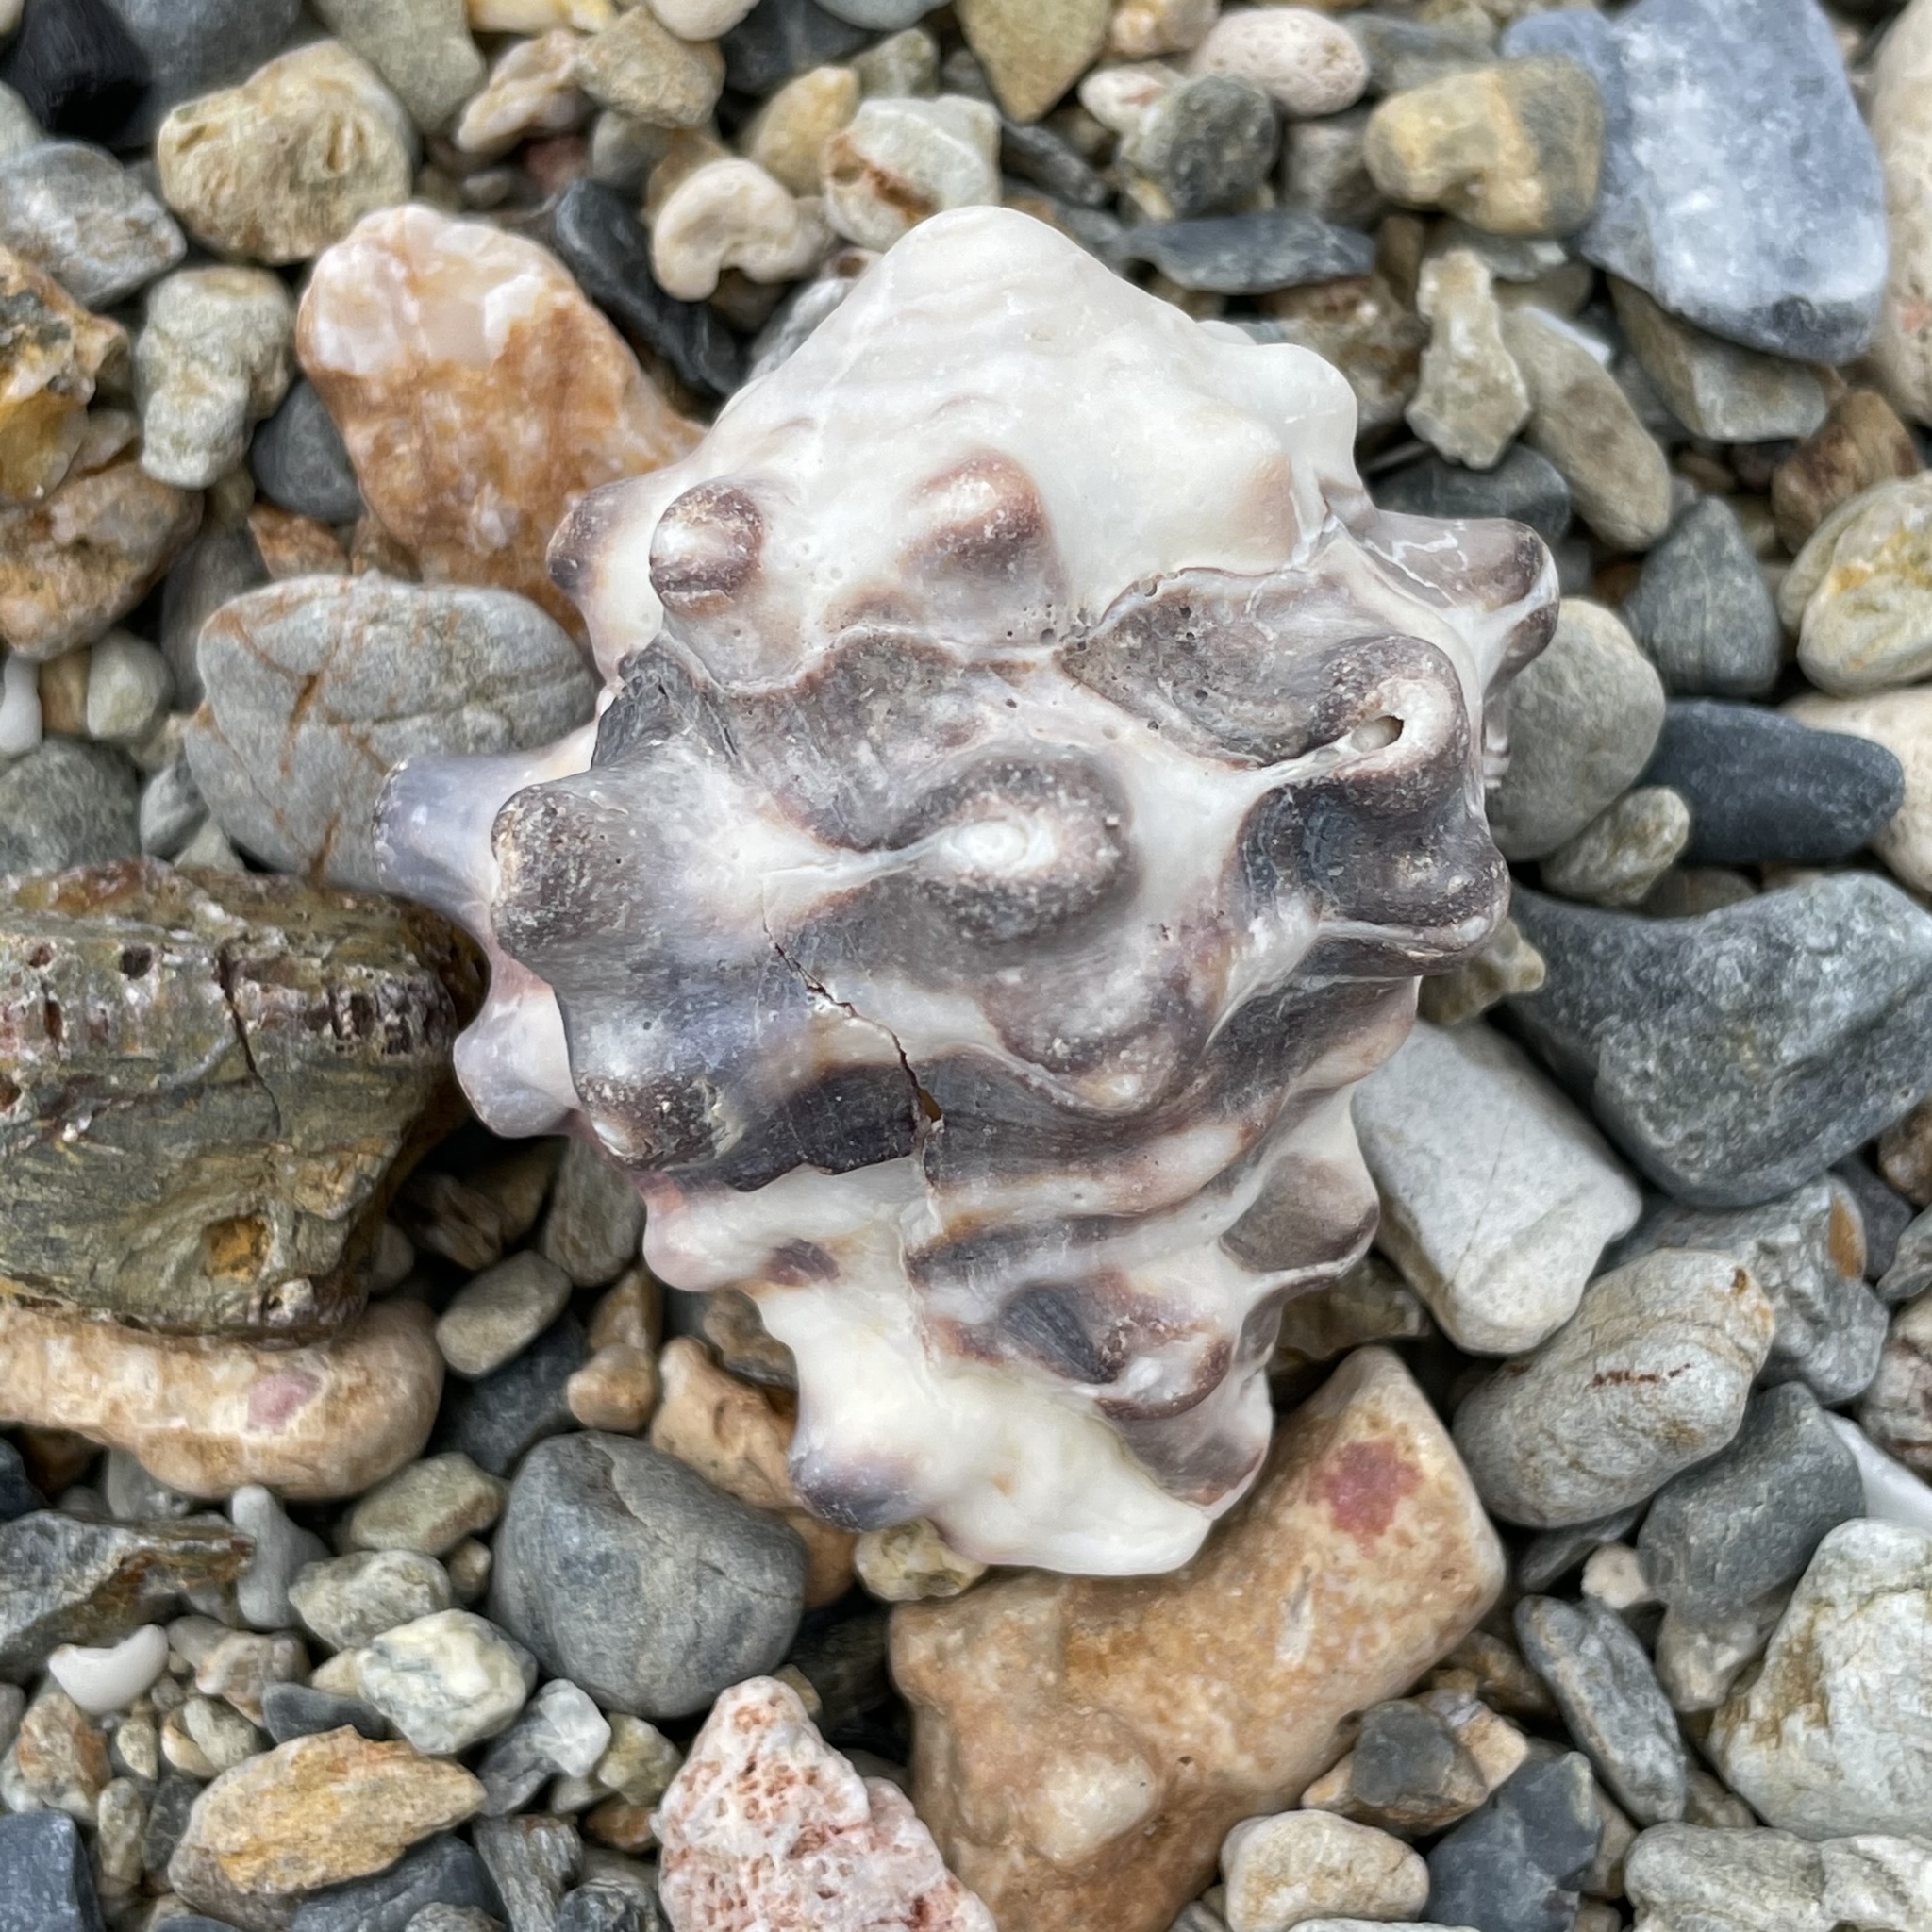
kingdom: Animalia
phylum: Mollusca
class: Gastropoda
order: Neogastropoda
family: Turbinellidae
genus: Vasum
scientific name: Vasum turbinellus
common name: Pacific top vase
